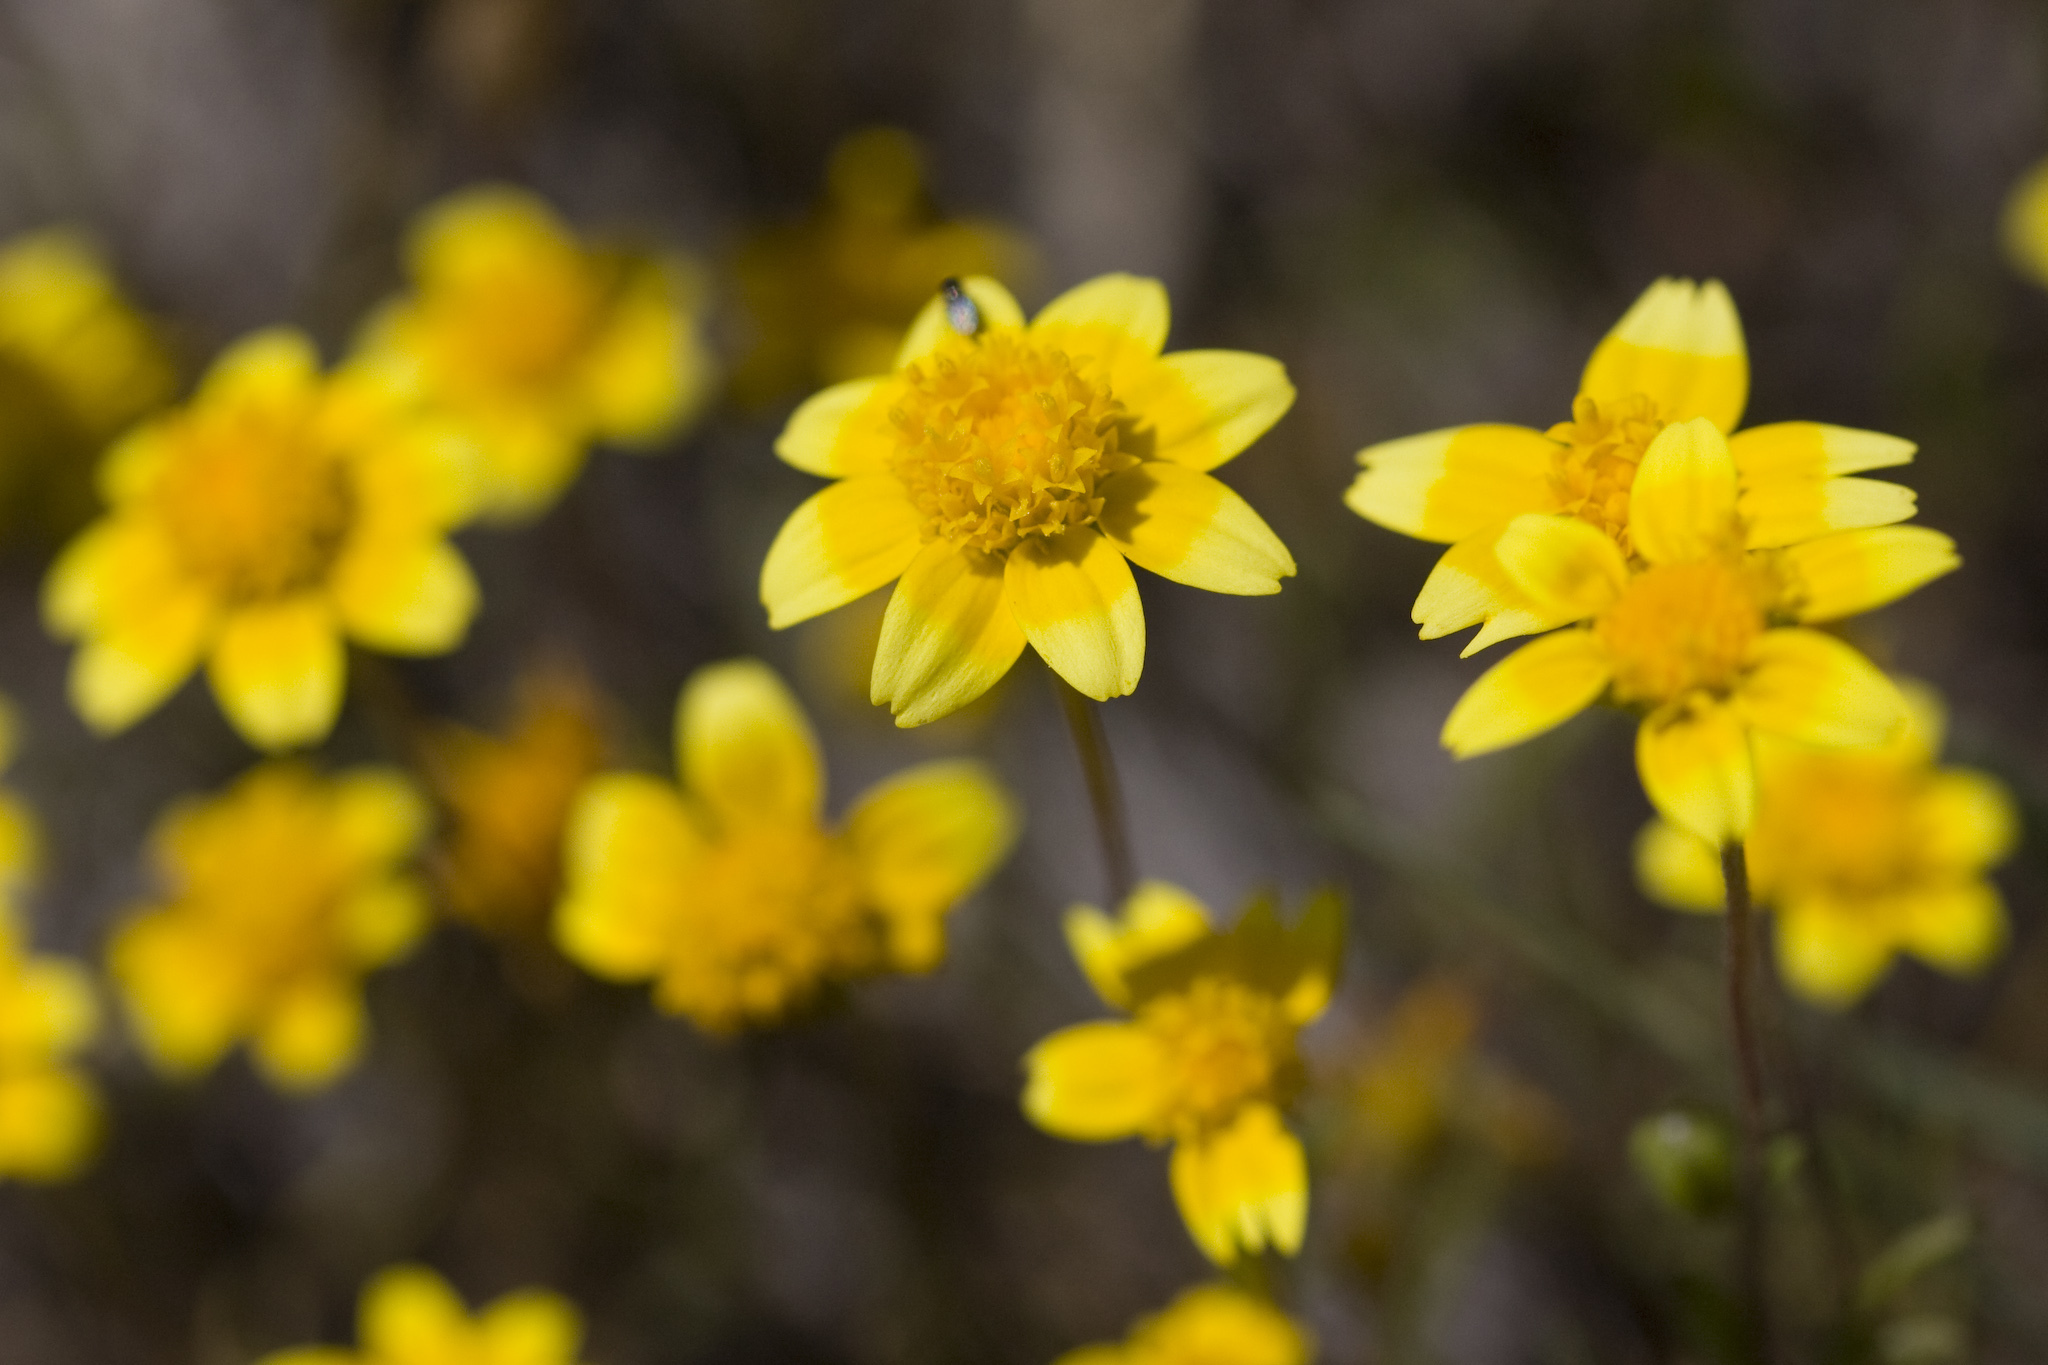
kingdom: Plantae
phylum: Tracheophyta
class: Magnoliopsida
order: Asterales
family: Asteraceae
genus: Lasthenia
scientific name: Lasthenia californica
